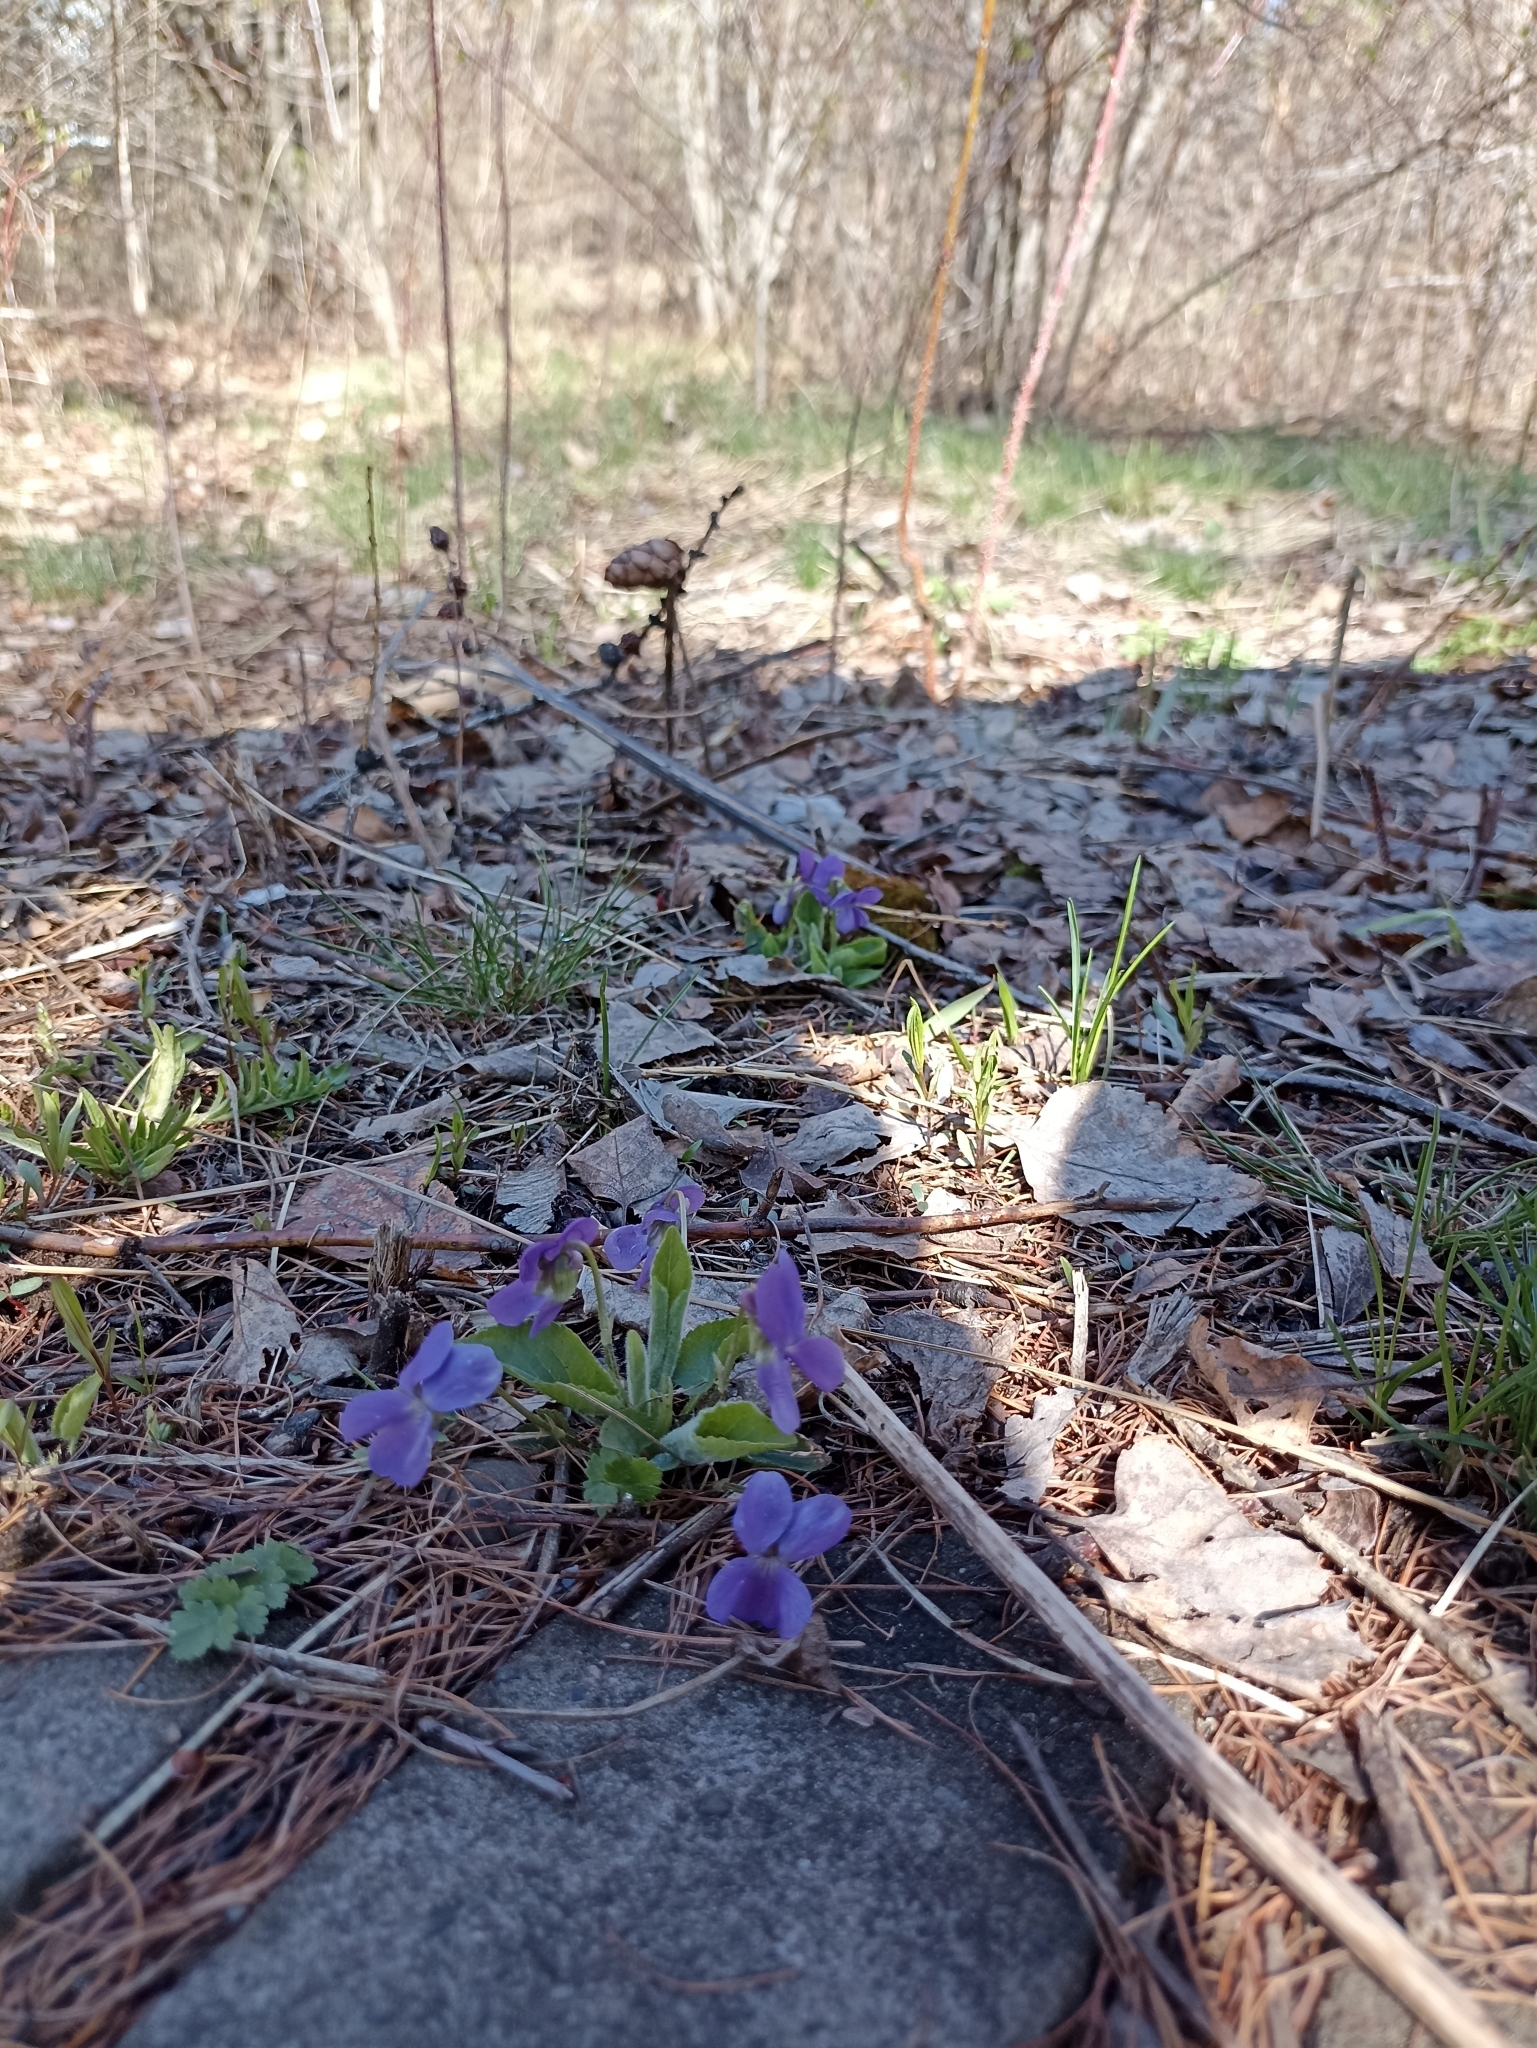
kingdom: Plantae
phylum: Tracheophyta
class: Magnoliopsida
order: Malpighiales
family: Violaceae
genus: Viola
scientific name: Viola hirta
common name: Hairy violet
